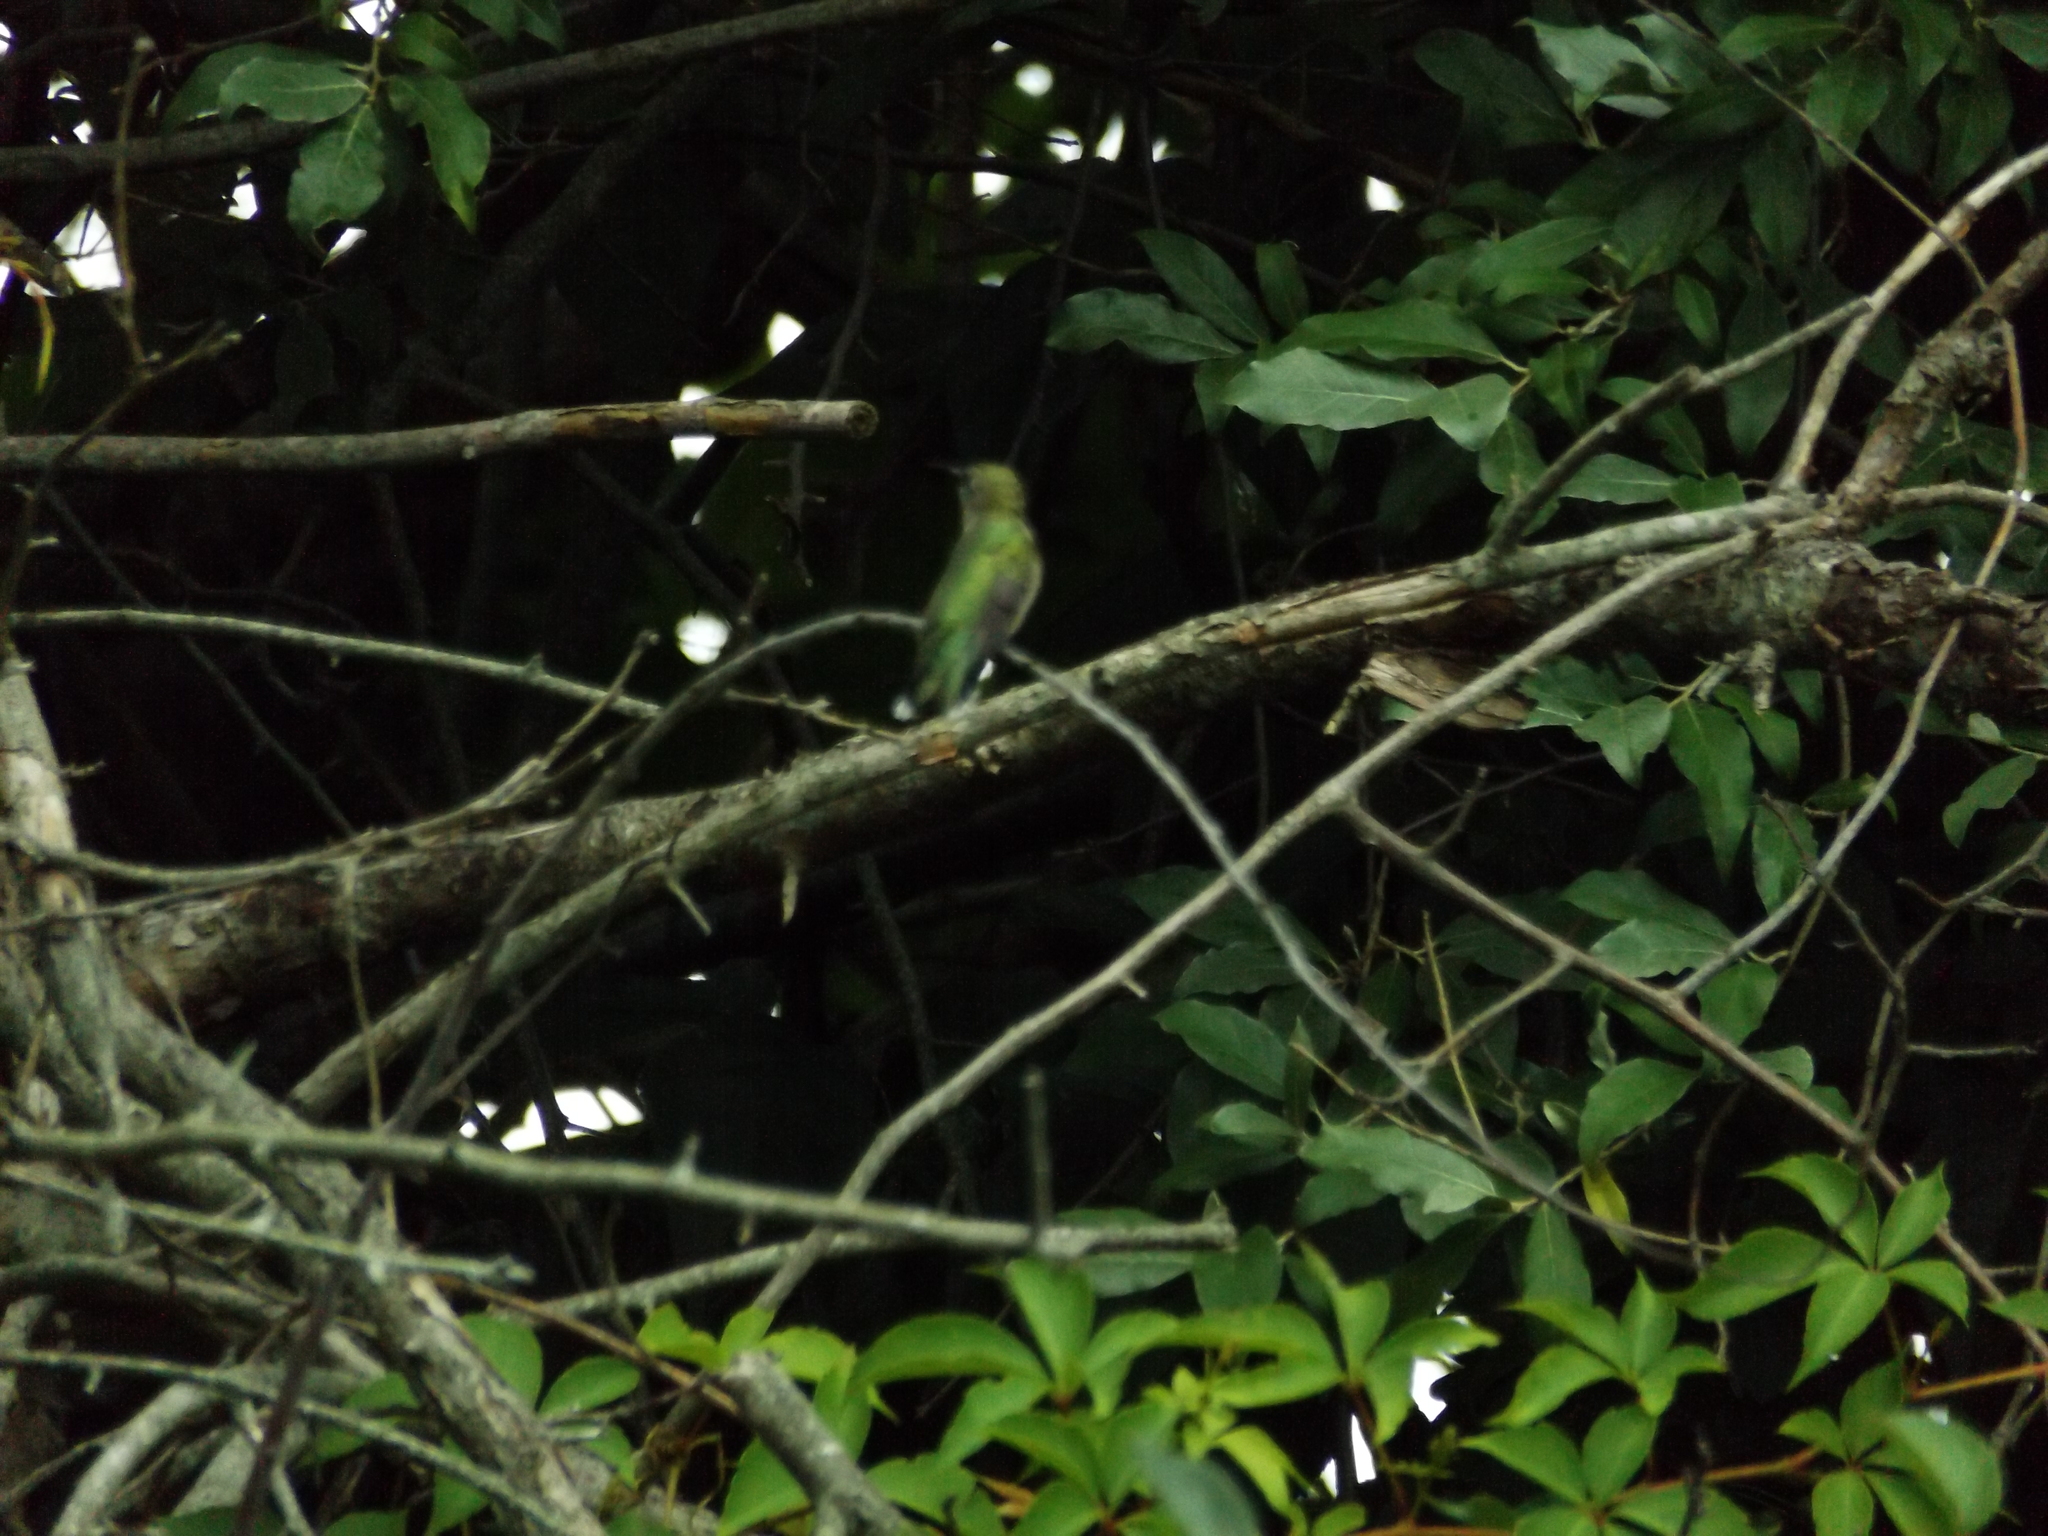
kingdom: Animalia
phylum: Chordata
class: Aves
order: Apodiformes
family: Trochilidae
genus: Archilochus
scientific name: Archilochus colubris
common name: Ruby-throated hummingbird
